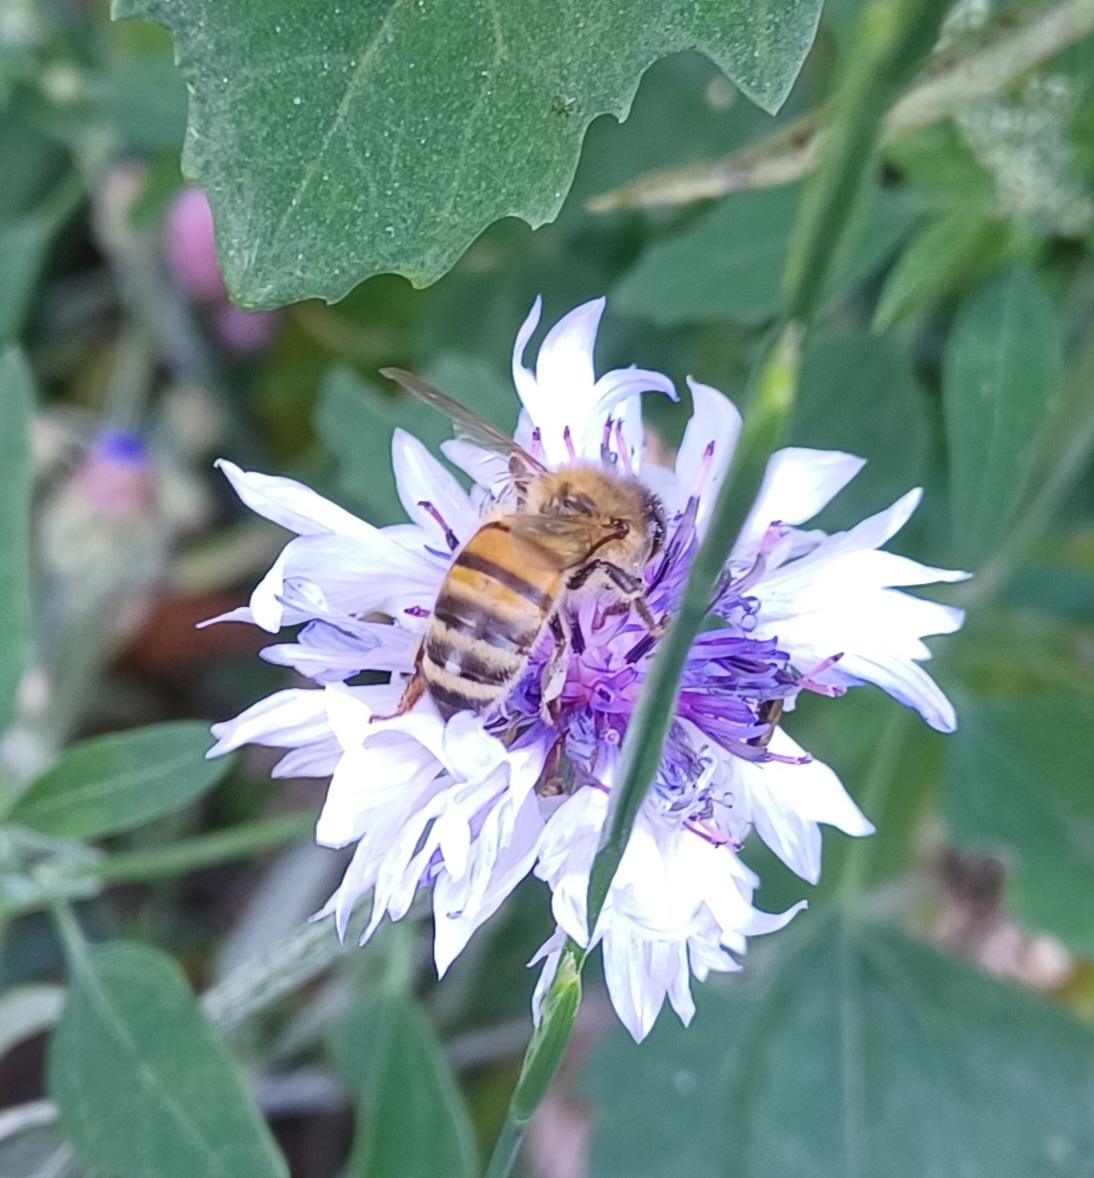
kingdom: Animalia
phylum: Arthropoda
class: Insecta
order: Hymenoptera
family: Apidae
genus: Apis
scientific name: Apis mellifera
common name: Honey bee
